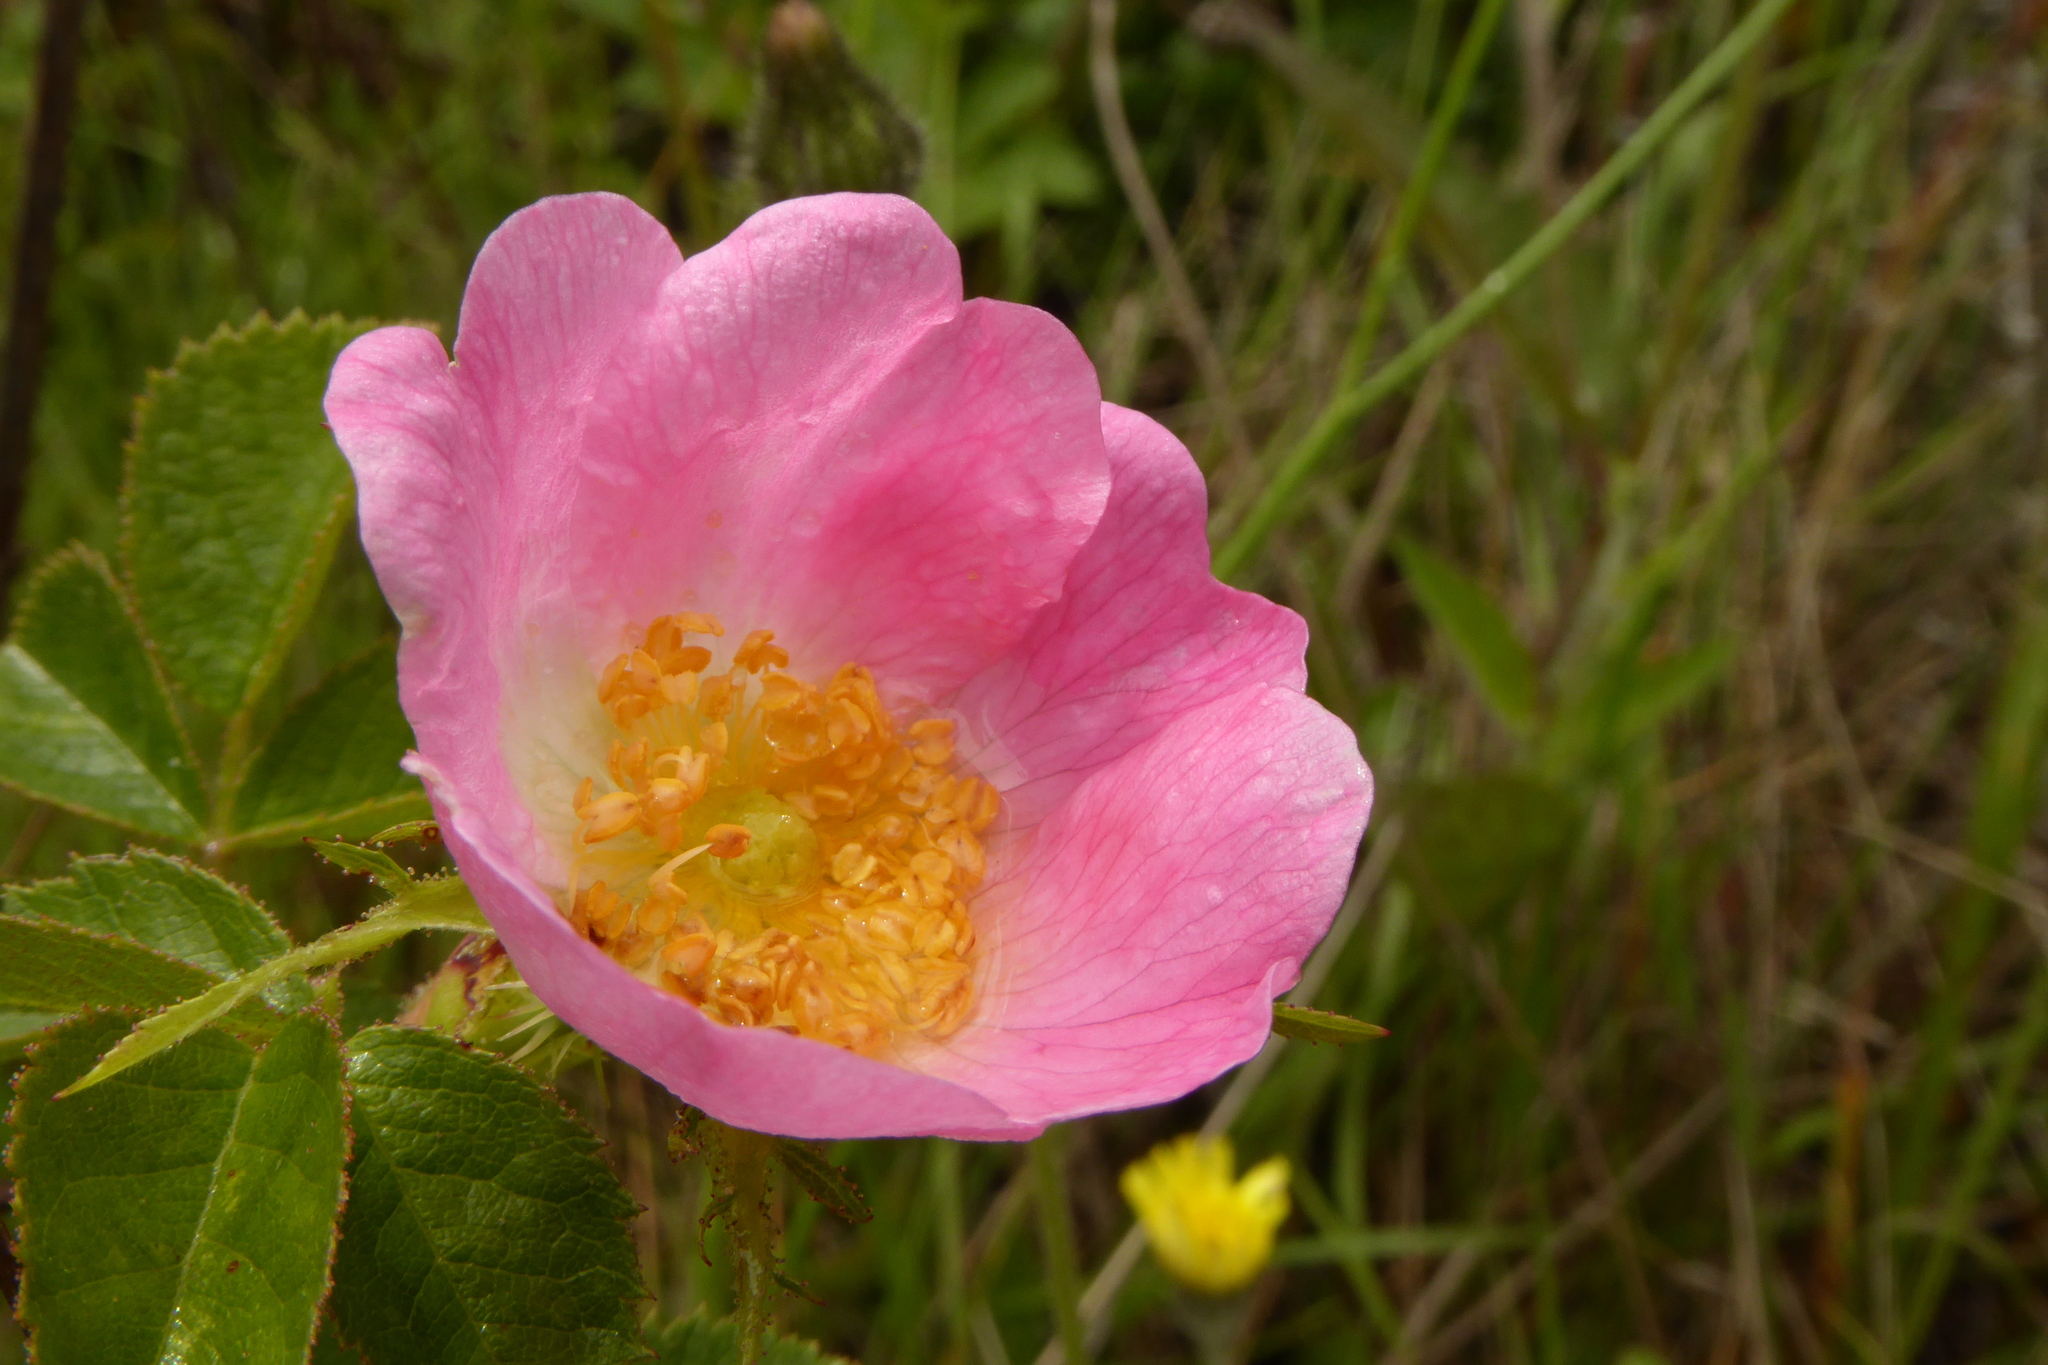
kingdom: Plantae
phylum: Tracheophyta
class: Magnoliopsida
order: Rosales
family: Rosaceae
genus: Rosa
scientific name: Rosa rubiginosa
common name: Sweet-briar
